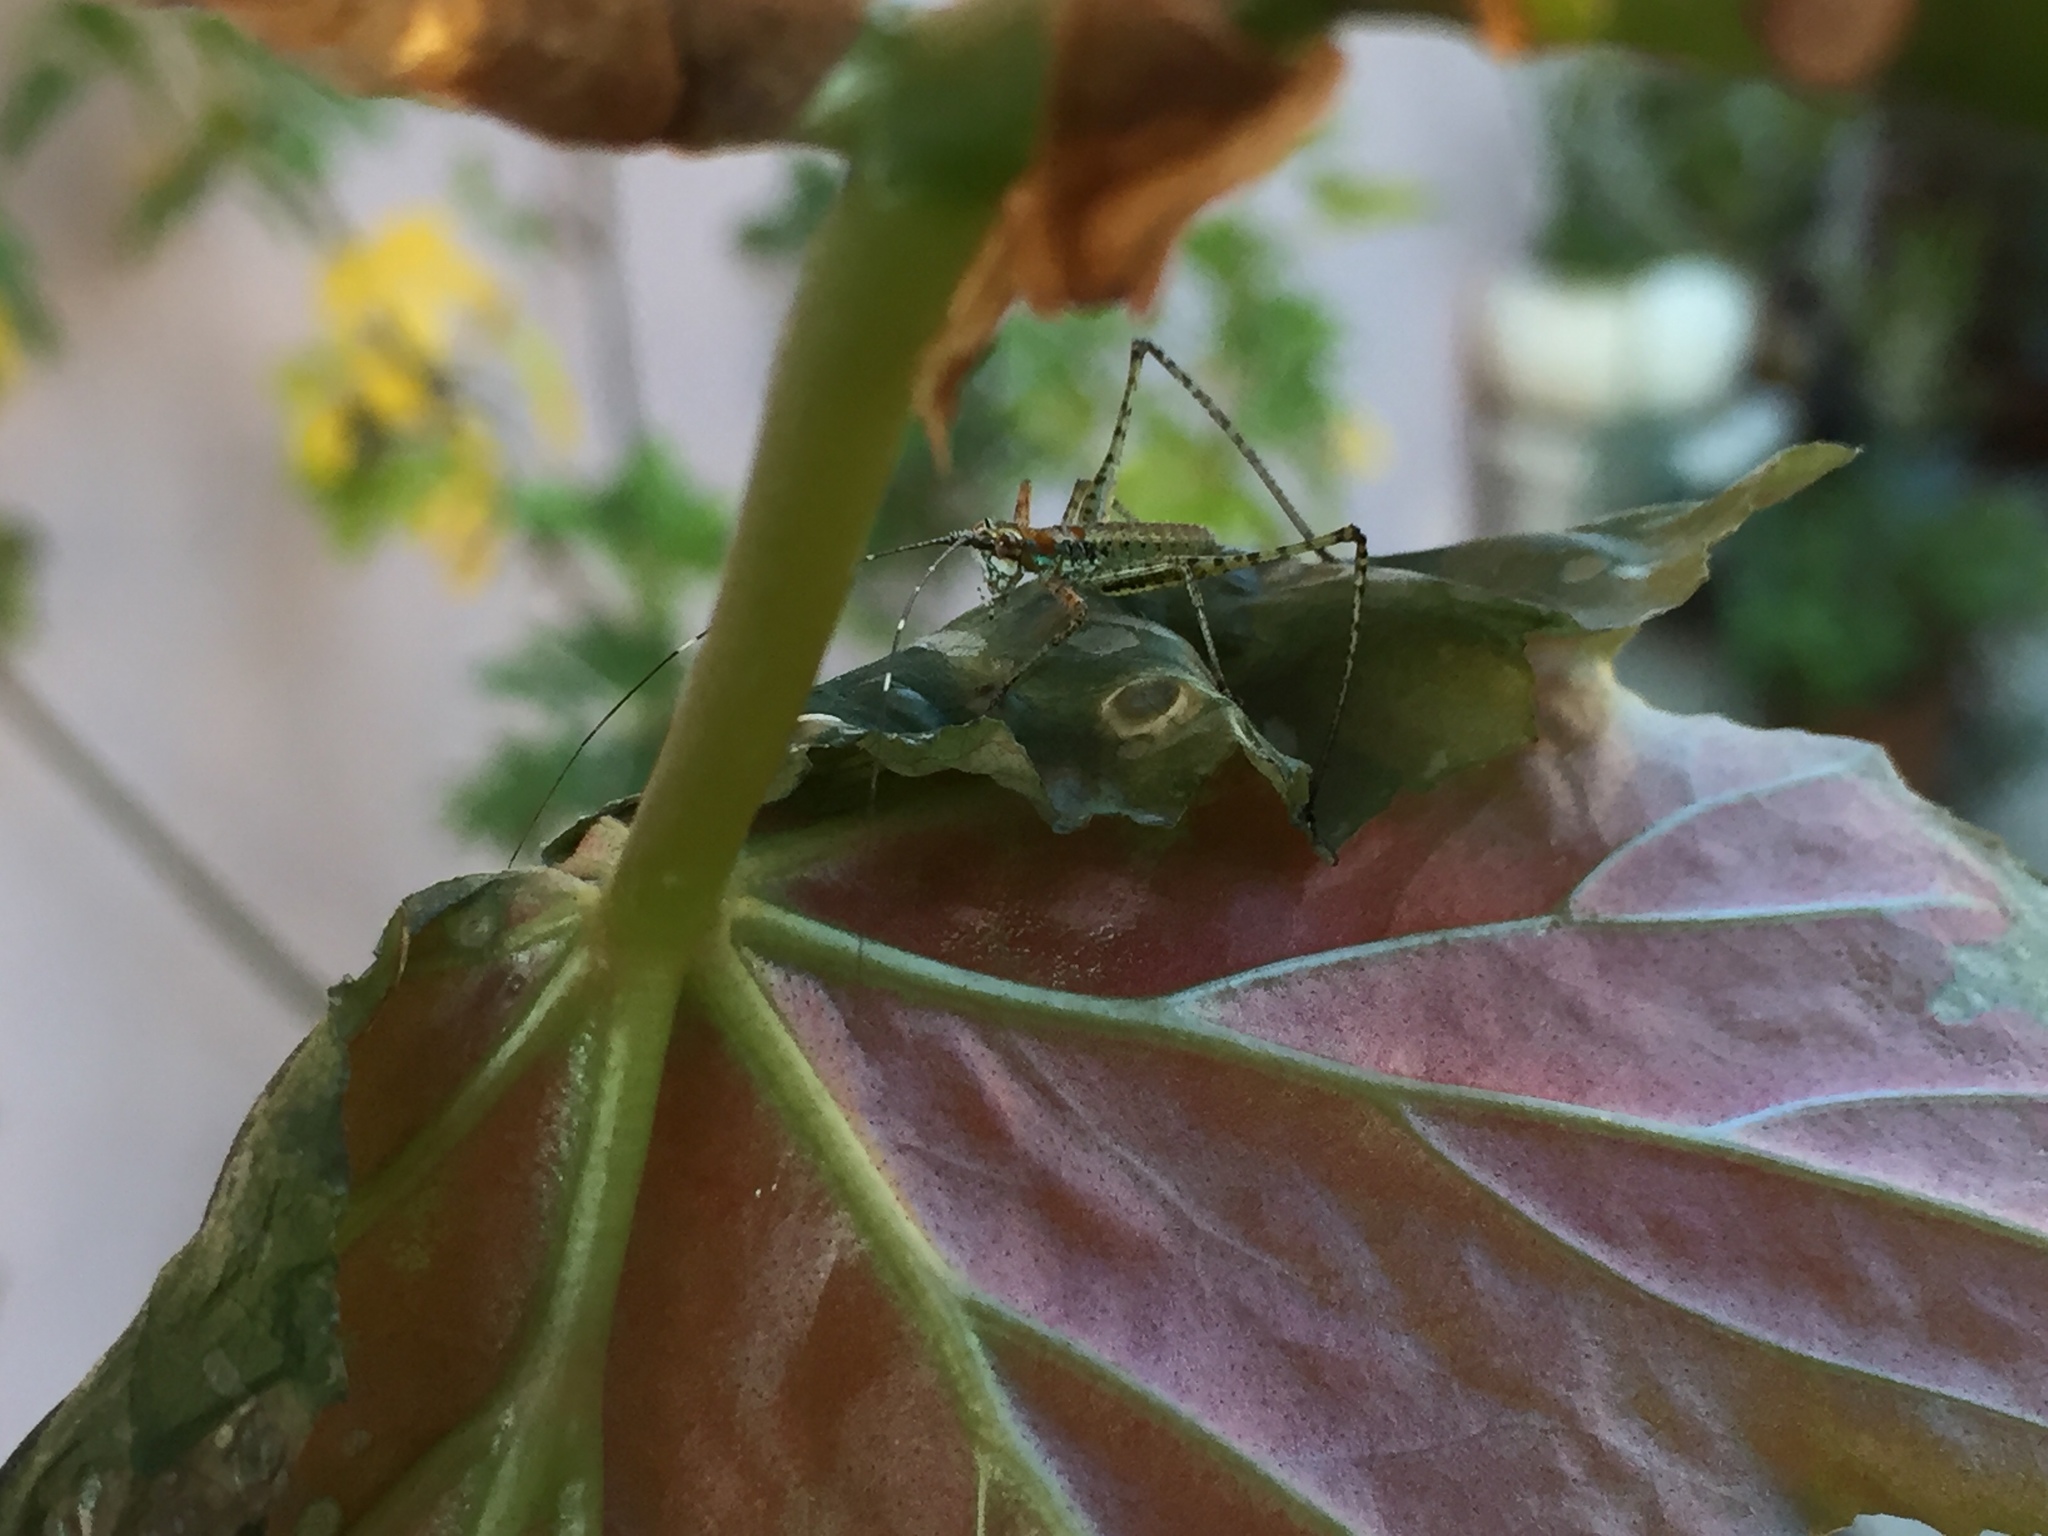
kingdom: Animalia
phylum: Arthropoda
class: Insecta
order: Orthoptera
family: Tettigoniidae
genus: Scudderia
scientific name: Scudderia
